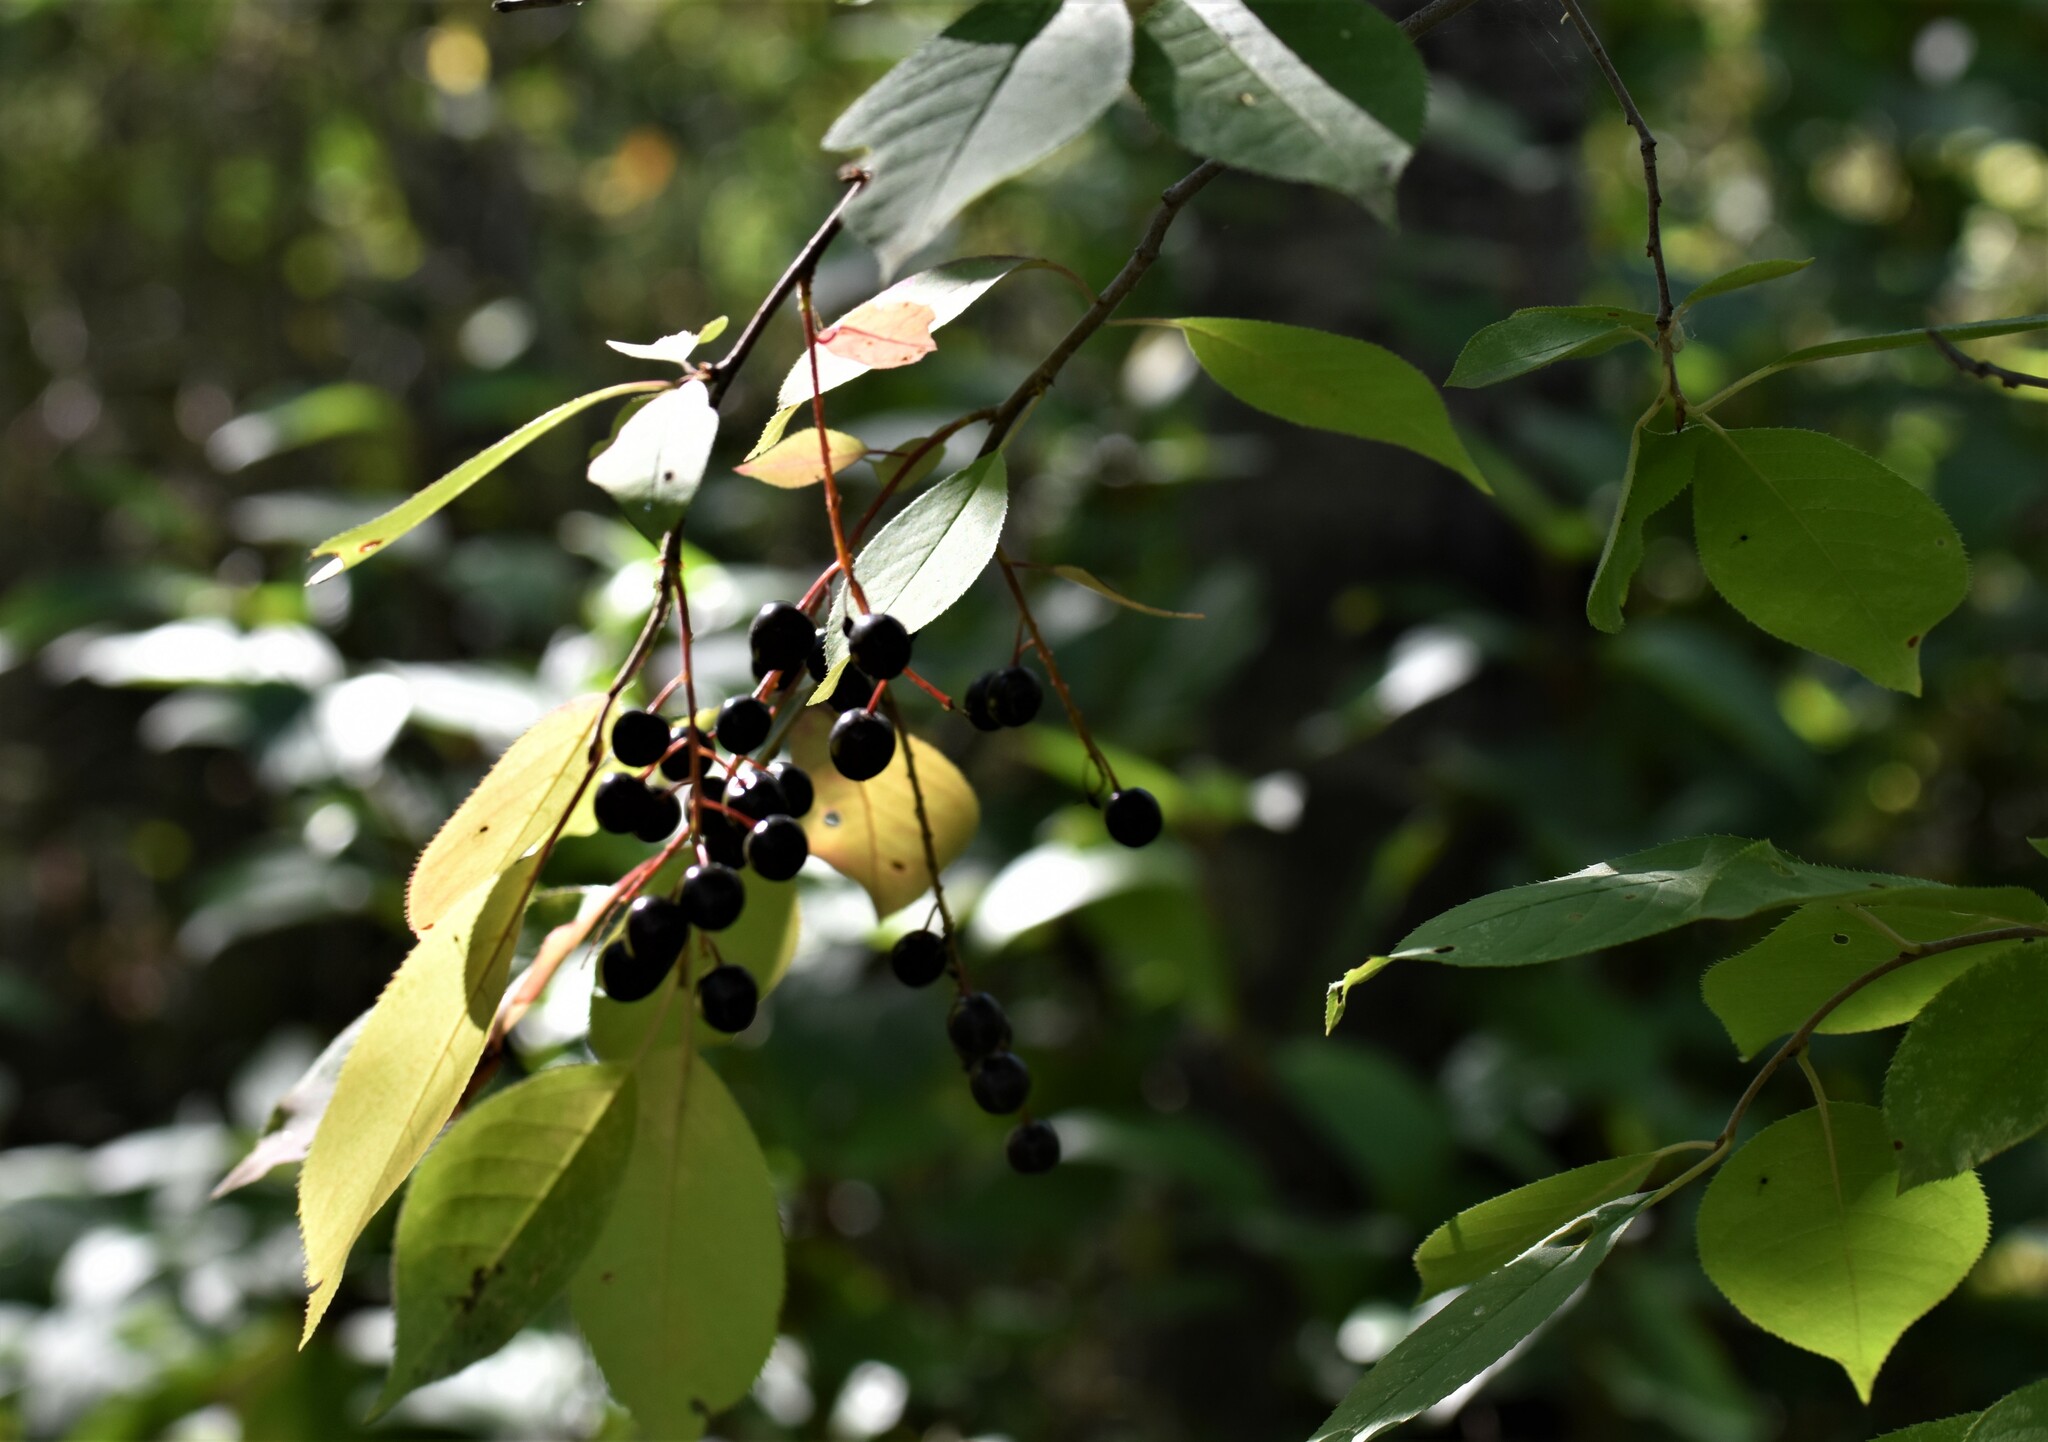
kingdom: Plantae
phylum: Tracheophyta
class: Magnoliopsida
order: Rosales
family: Rosaceae
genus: Prunus
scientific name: Prunus virginiana
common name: Chokecherry
